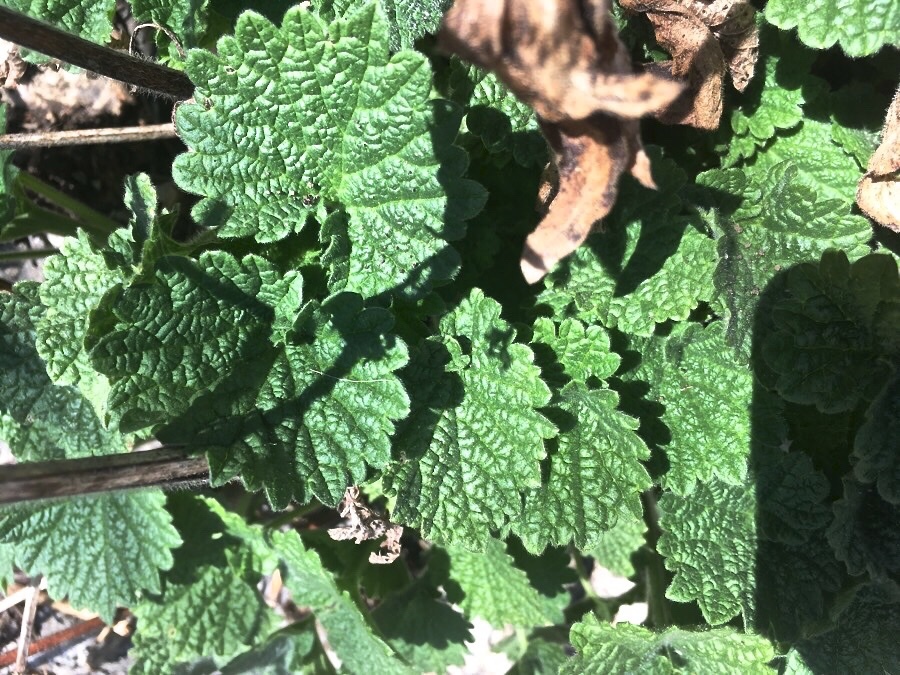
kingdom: Plantae
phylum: Tracheophyta
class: Magnoliopsida
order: Lamiales
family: Lamiaceae
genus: Ballota
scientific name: Ballota nigra
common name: Black horehound
